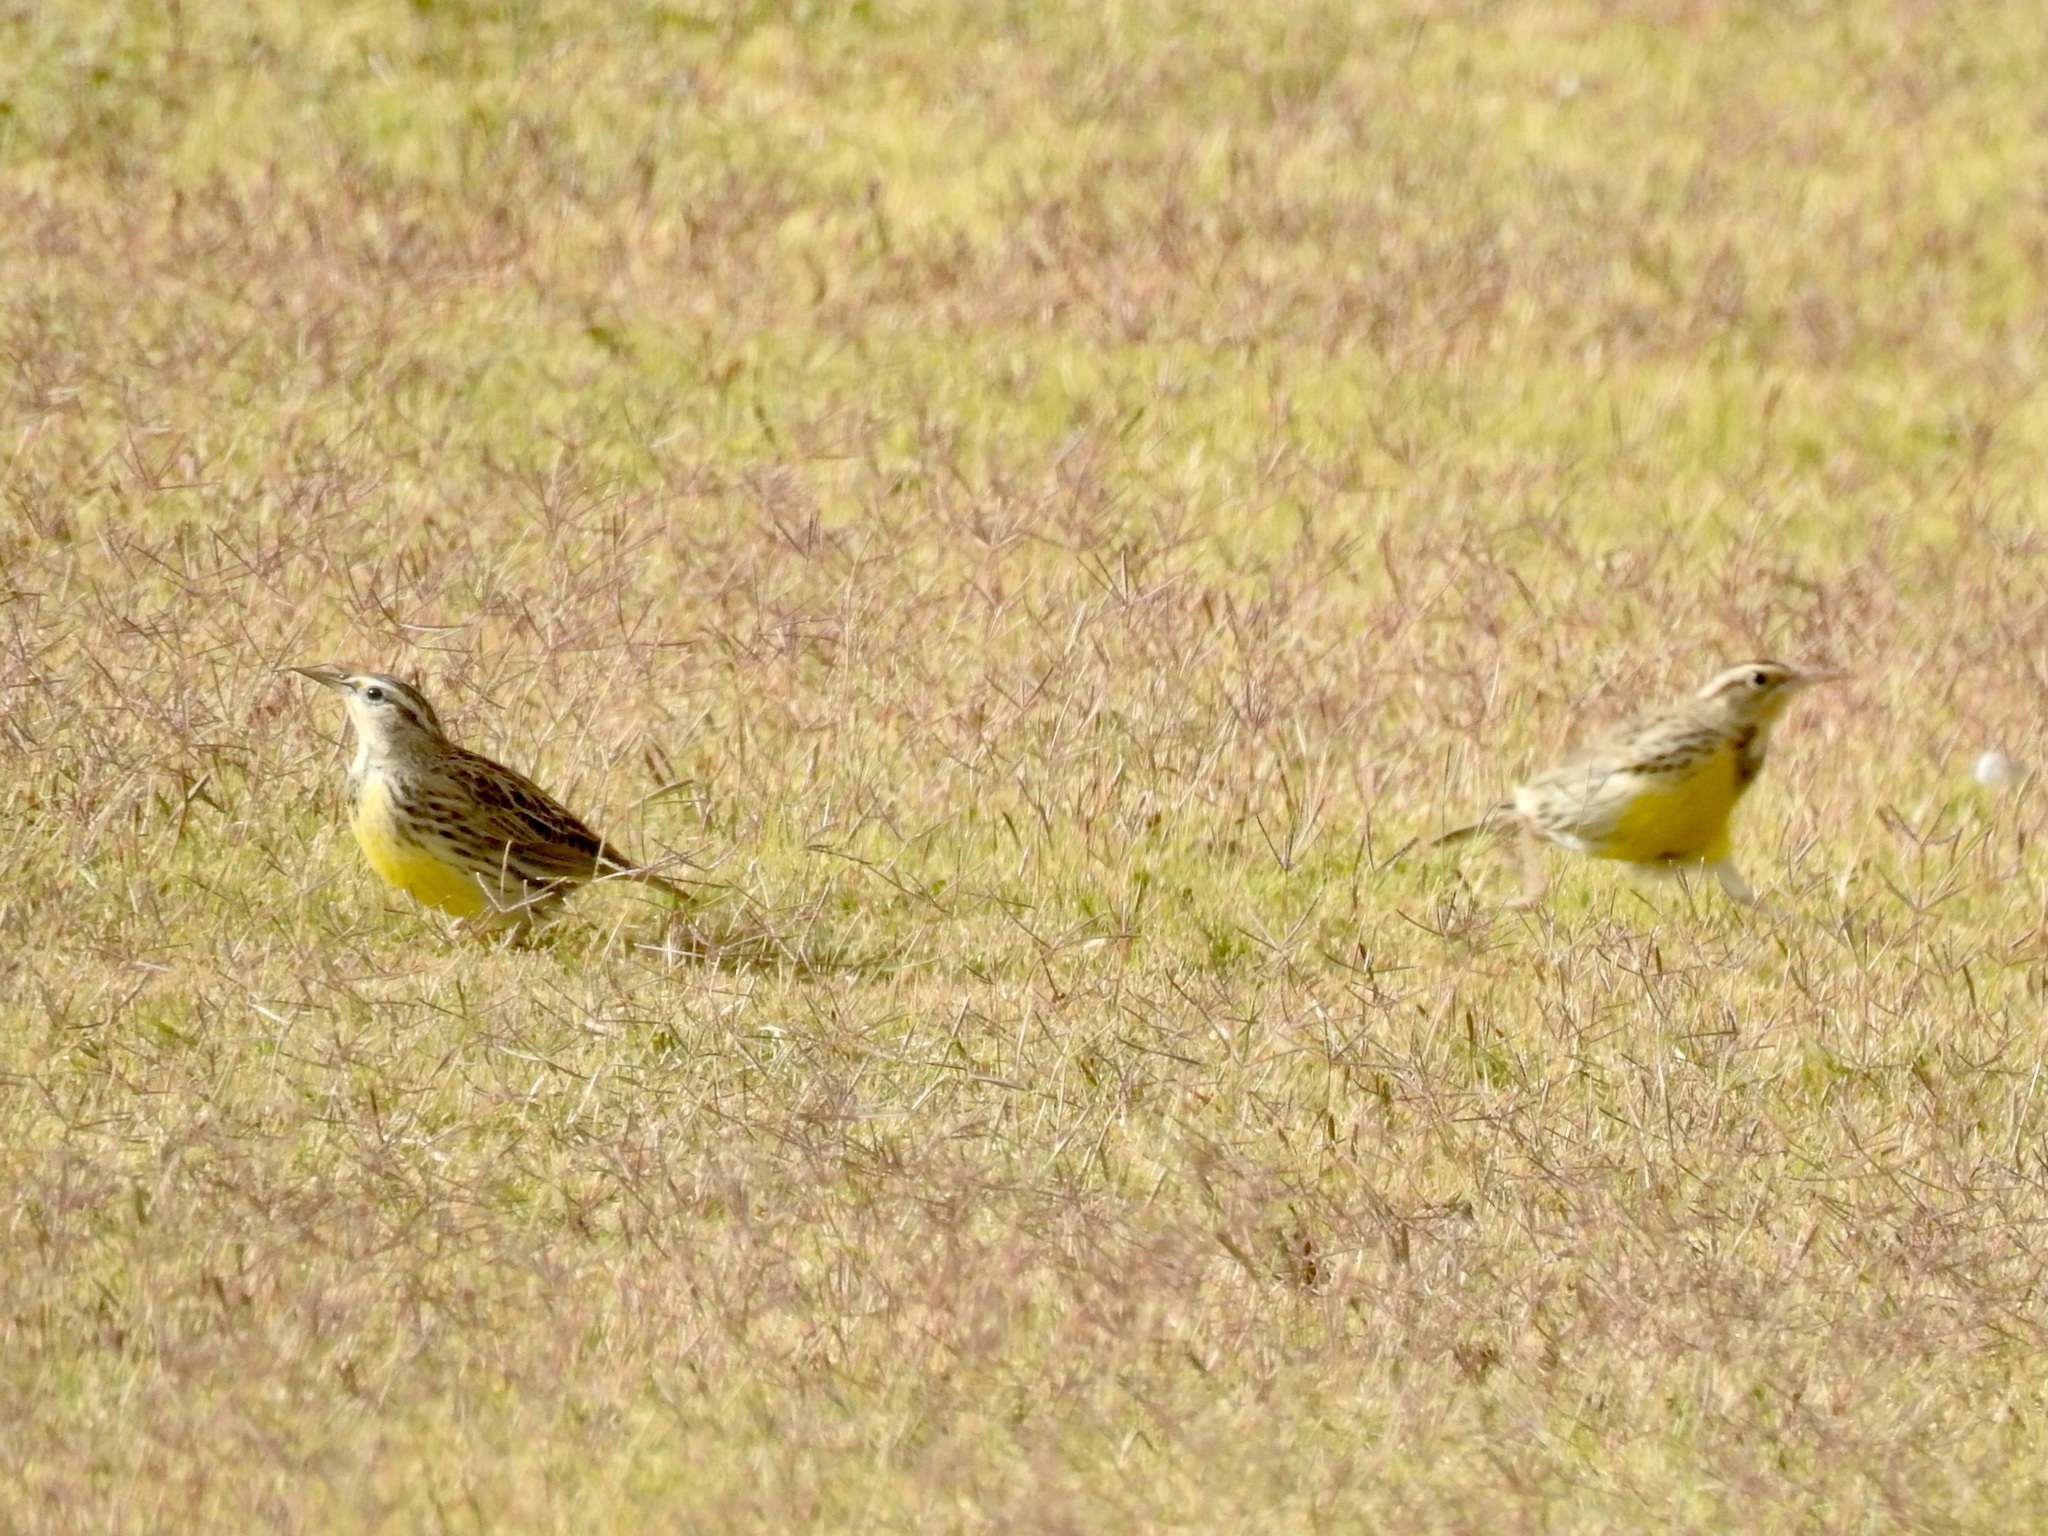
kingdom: Animalia
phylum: Chordata
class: Aves
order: Passeriformes
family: Icteridae
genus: Sturnella
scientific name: Sturnella neglecta
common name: Western meadowlark
